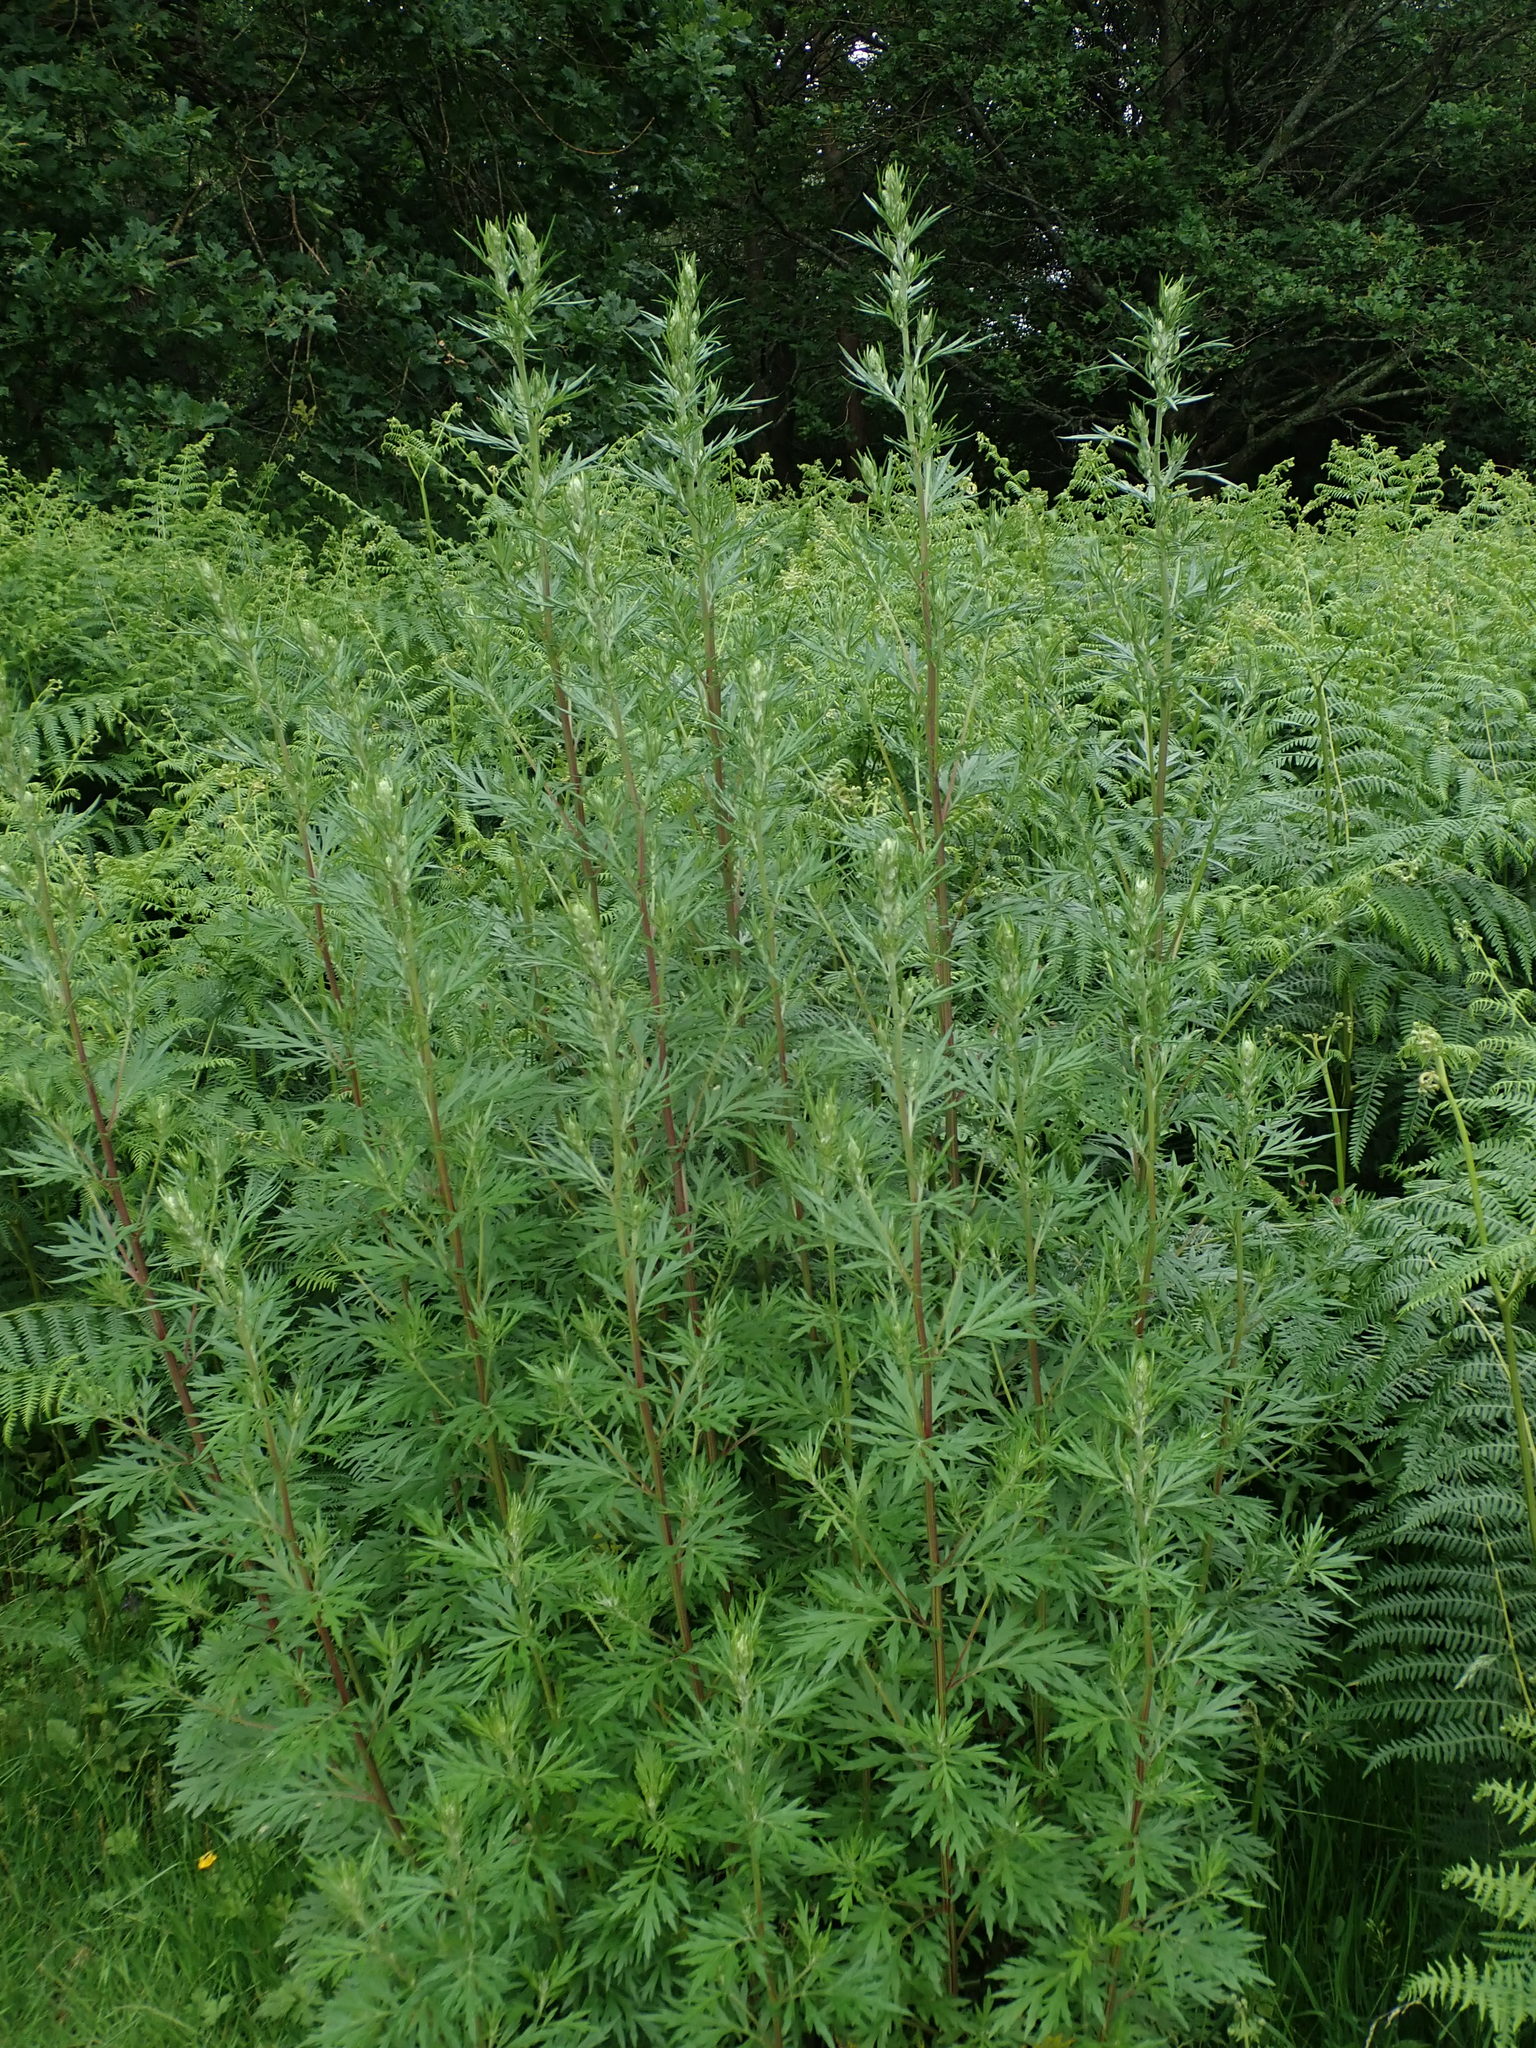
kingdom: Plantae
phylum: Tracheophyta
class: Magnoliopsida
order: Asterales
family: Asteraceae
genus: Artemisia
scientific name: Artemisia vulgaris
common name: Mugwort
